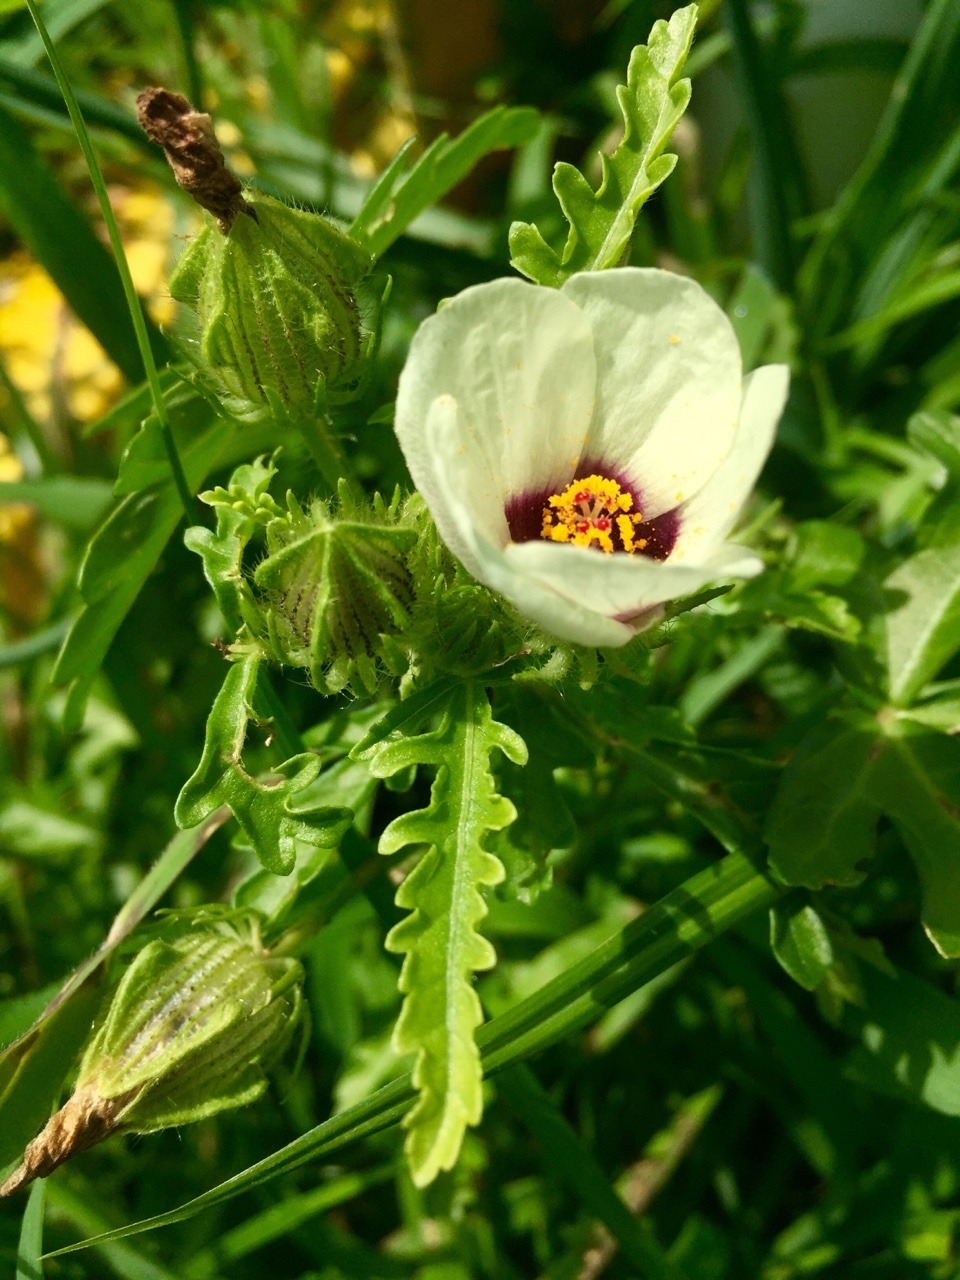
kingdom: Plantae
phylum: Tracheophyta
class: Magnoliopsida
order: Malvales
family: Malvaceae
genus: Hibiscus
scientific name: Hibiscus trionum
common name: Bladder ketmia
